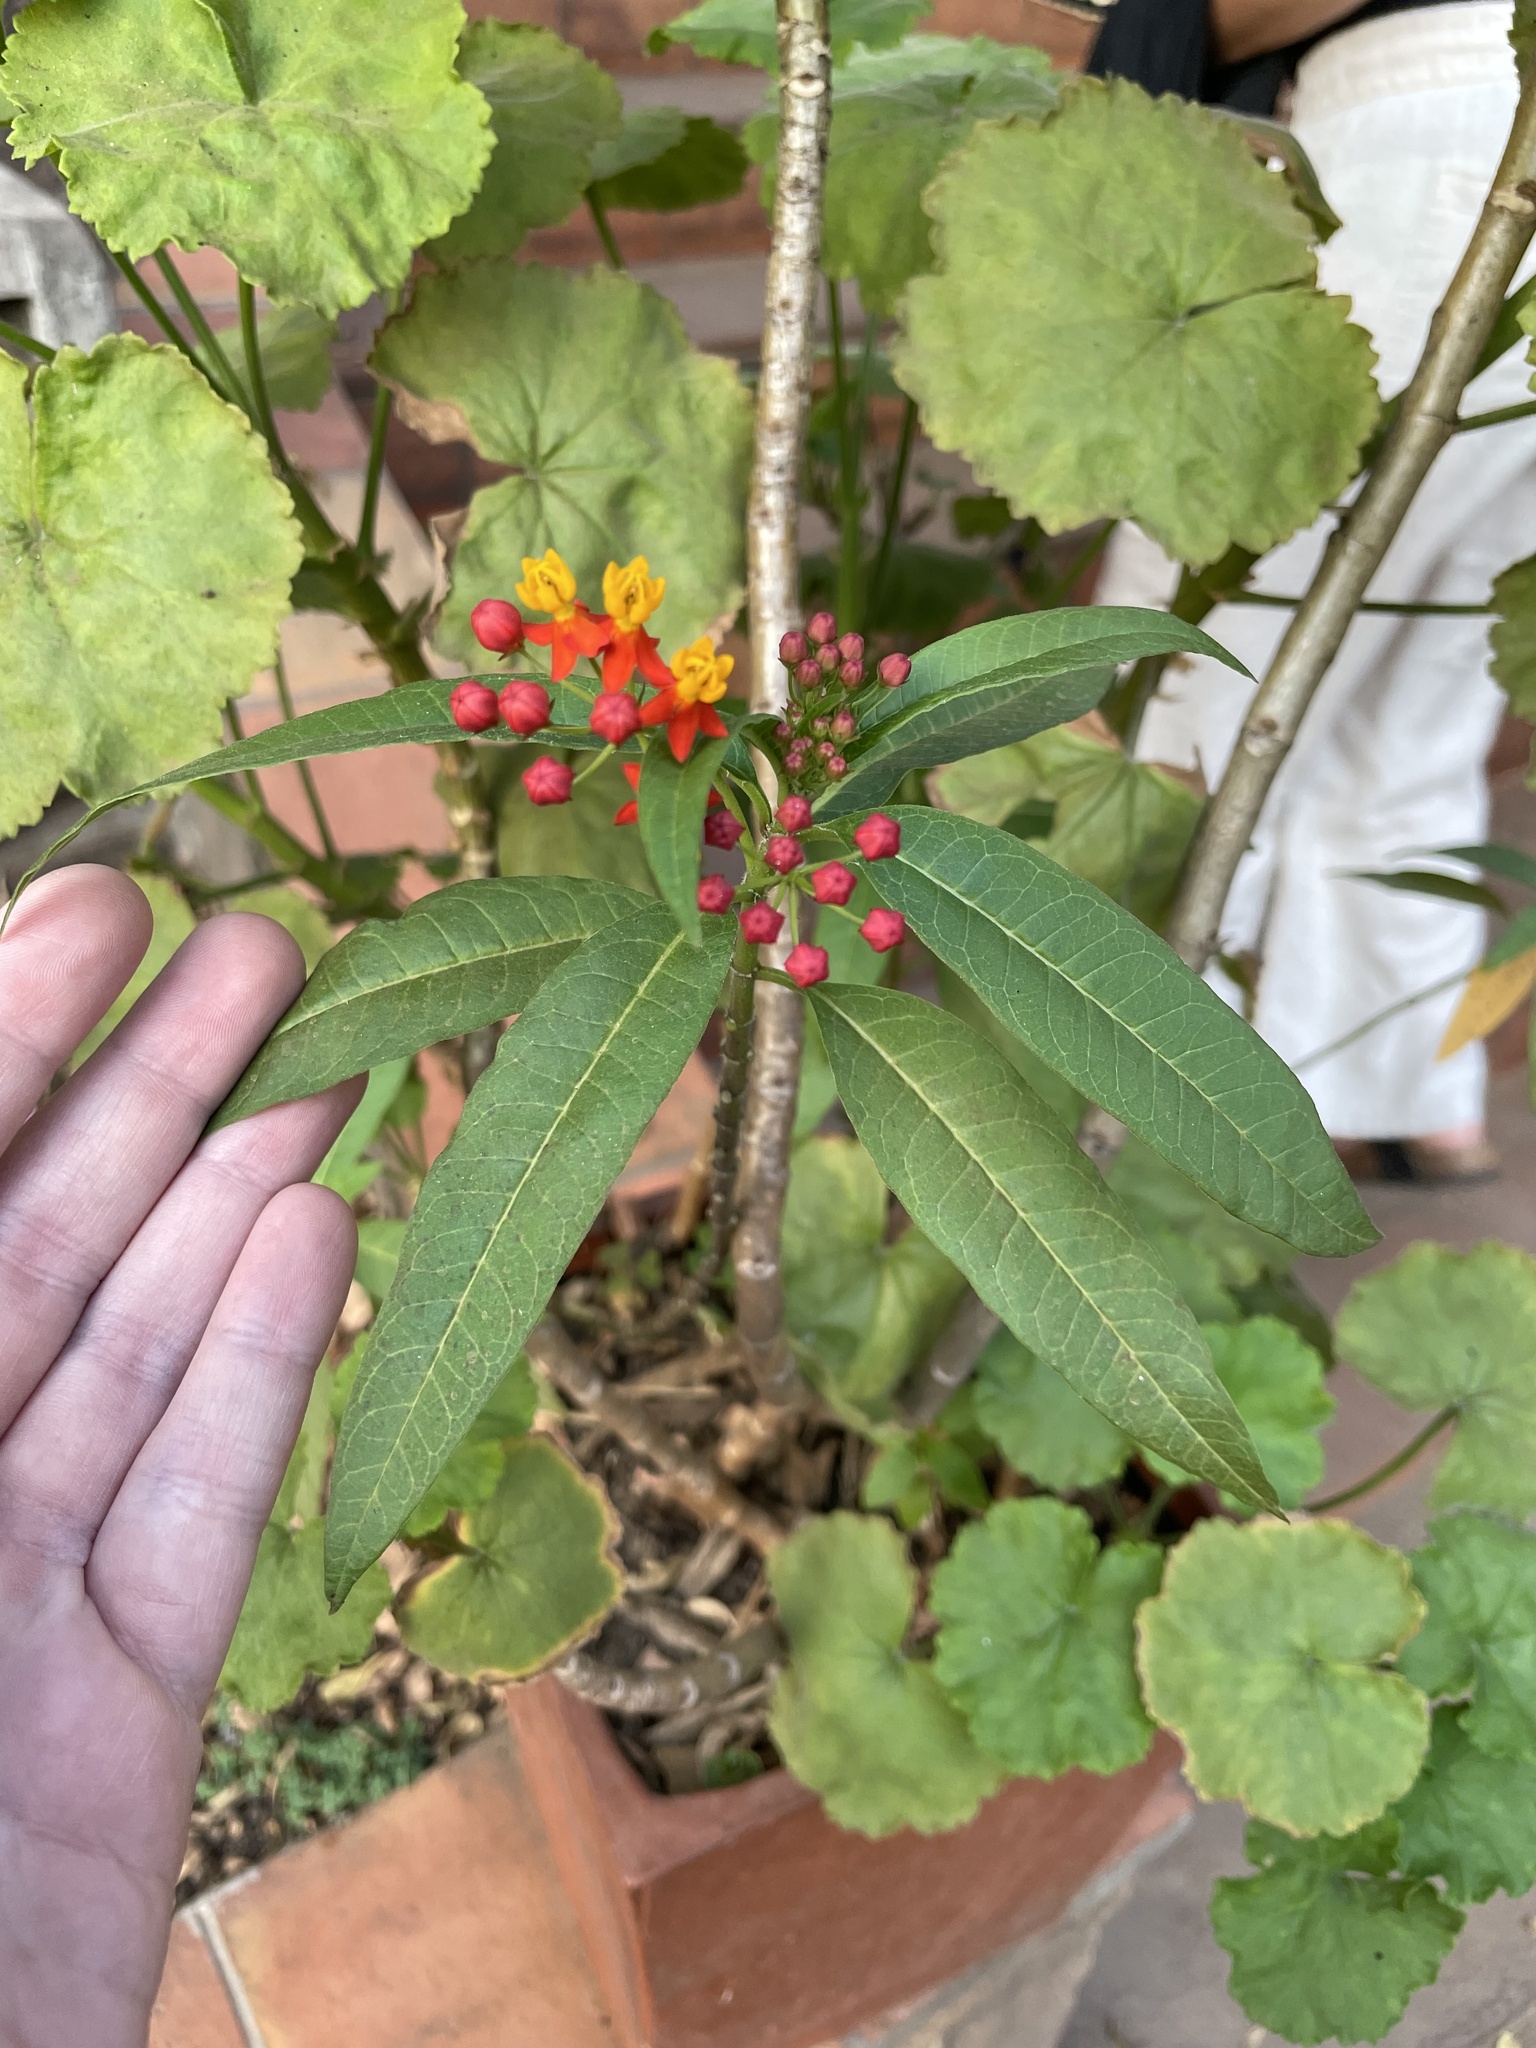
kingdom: Plantae
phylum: Tracheophyta
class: Magnoliopsida
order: Gentianales
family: Apocynaceae
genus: Asclepias
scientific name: Asclepias curassavica
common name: Bloodflower
